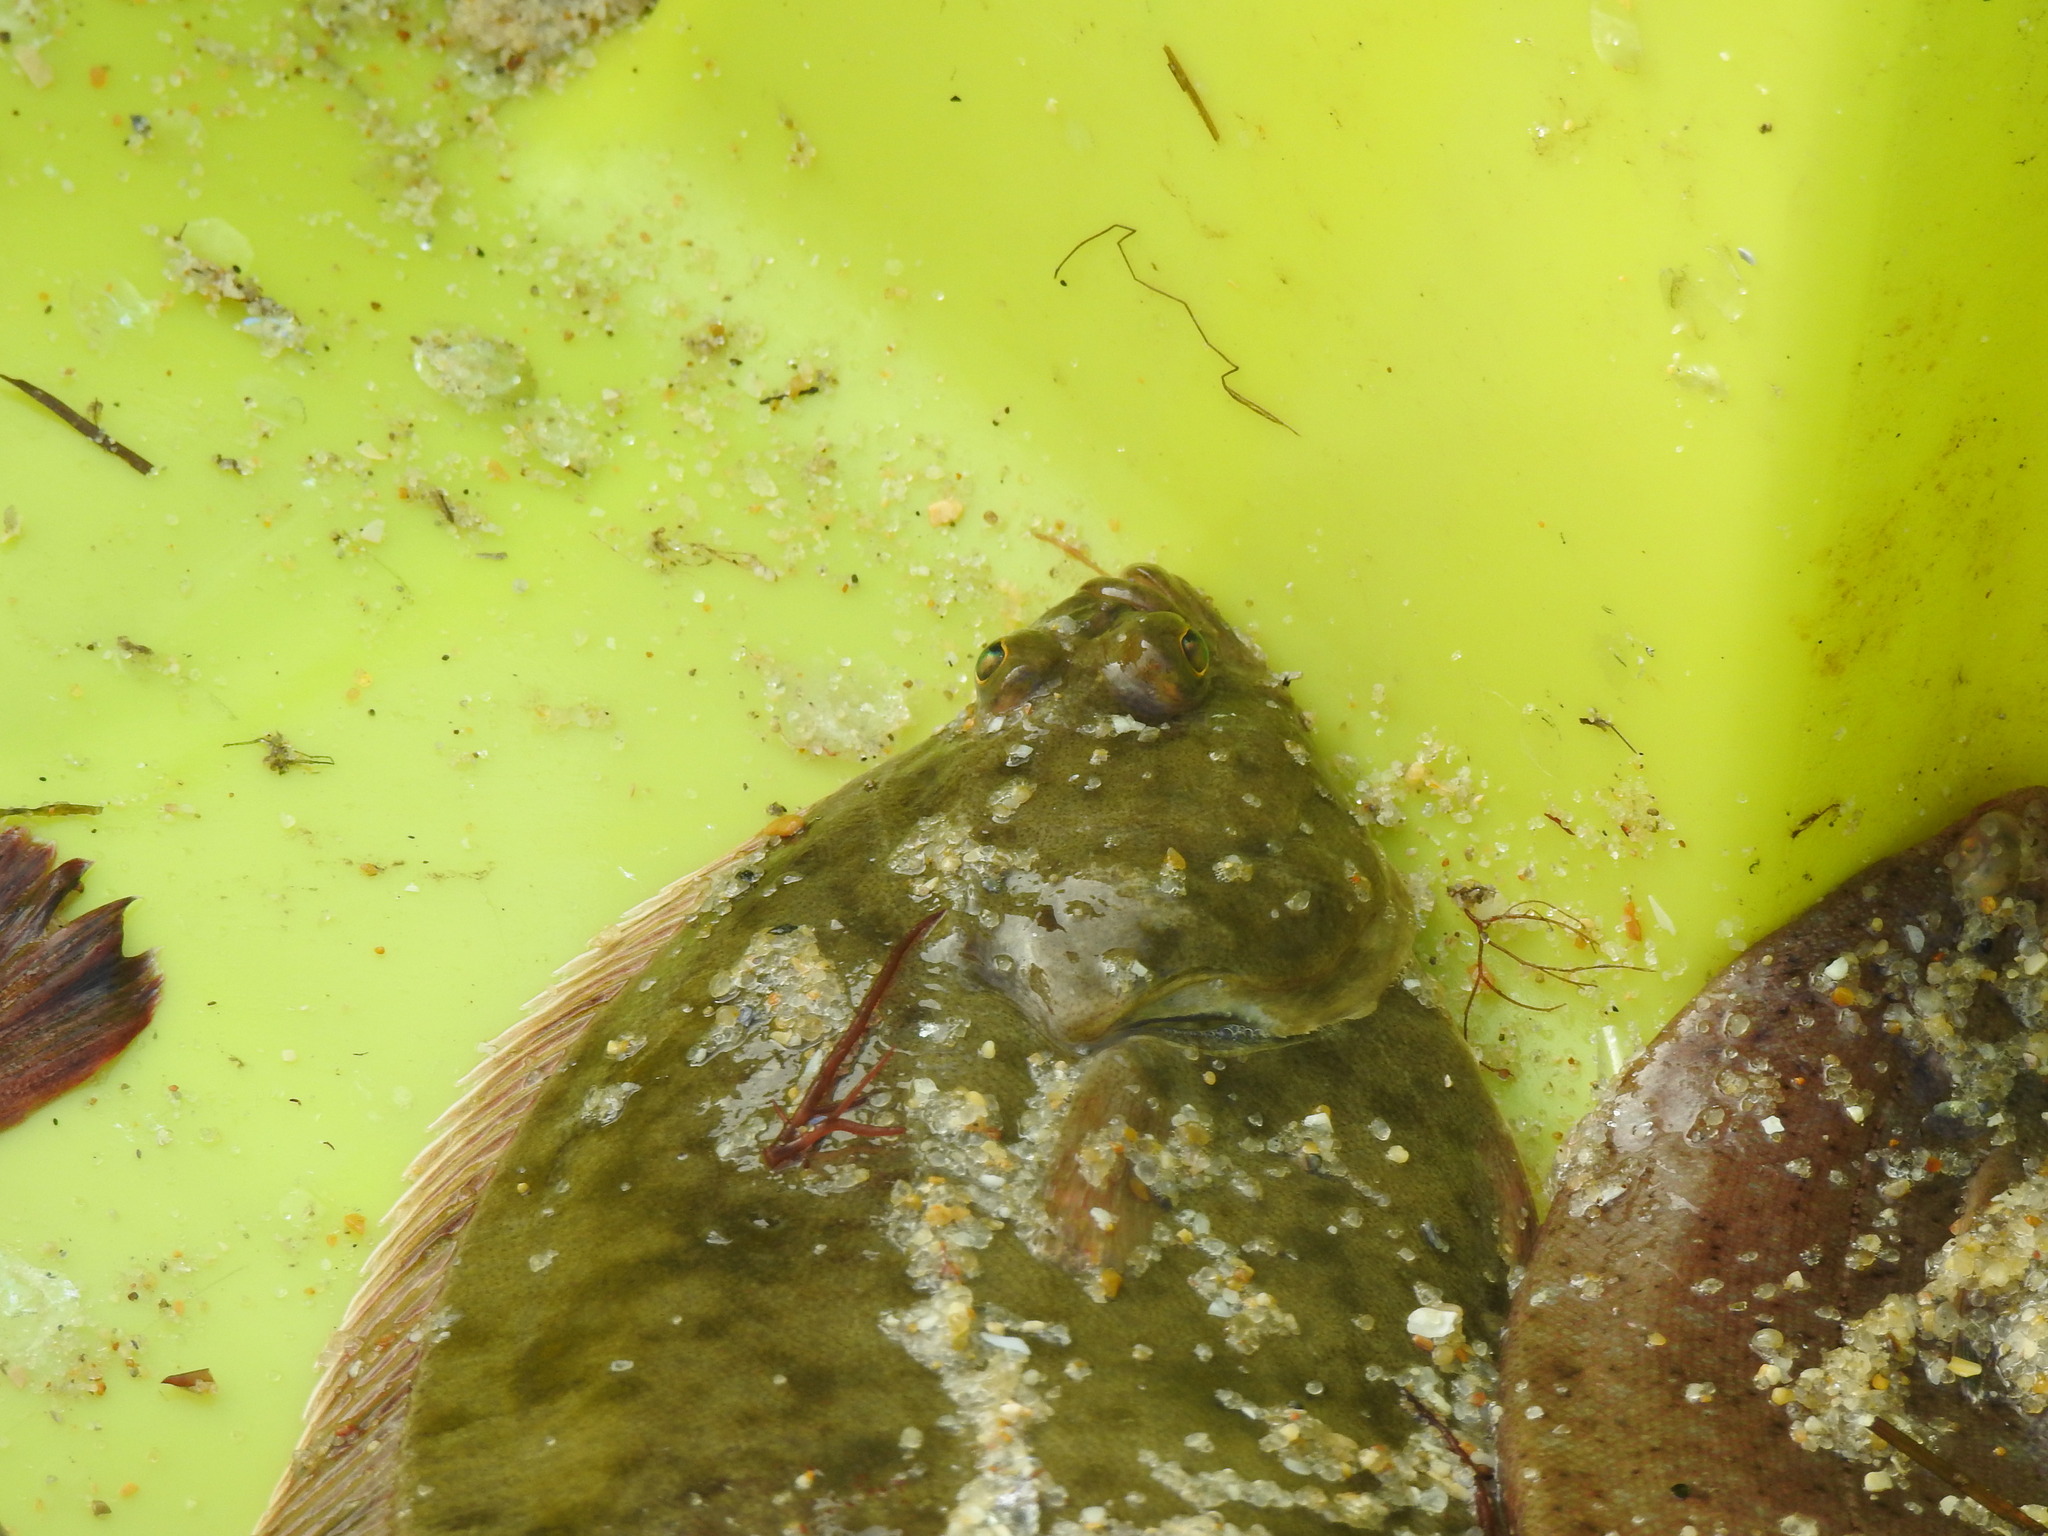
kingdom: Animalia
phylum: Chordata
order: Pleuronectiformes
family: Pleuronectidae
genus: Platichthys
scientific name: Platichthys flesus
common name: European flounder
